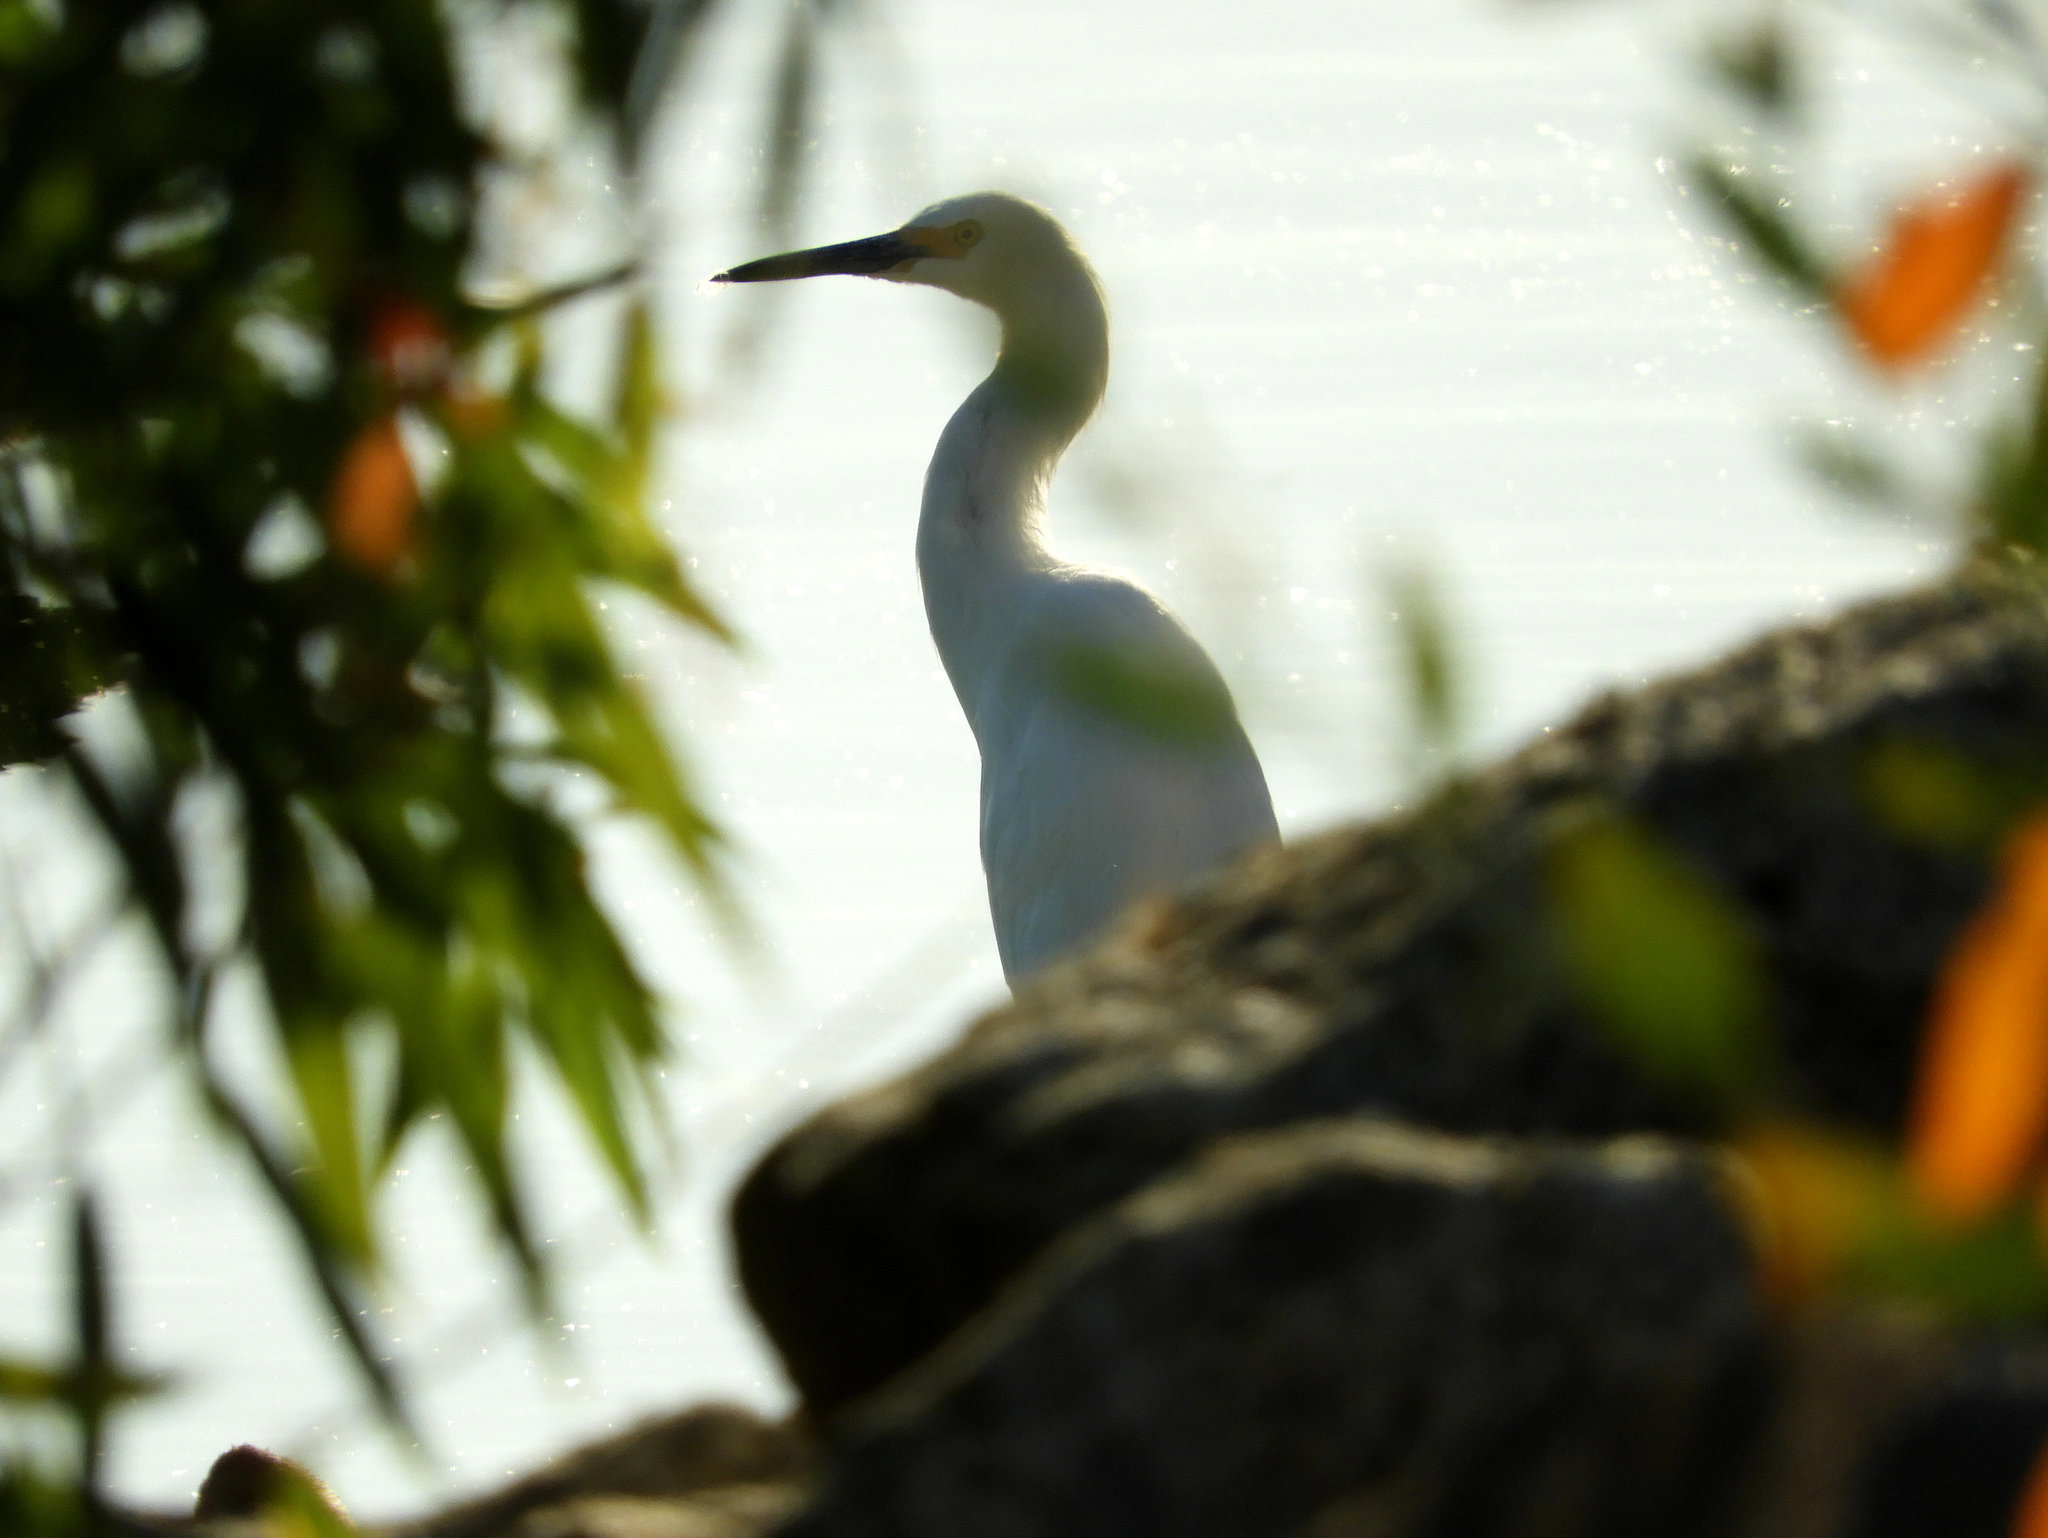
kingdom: Animalia
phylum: Chordata
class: Aves
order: Pelecaniformes
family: Ardeidae
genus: Egretta
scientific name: Egretta thula
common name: Snowy egret
